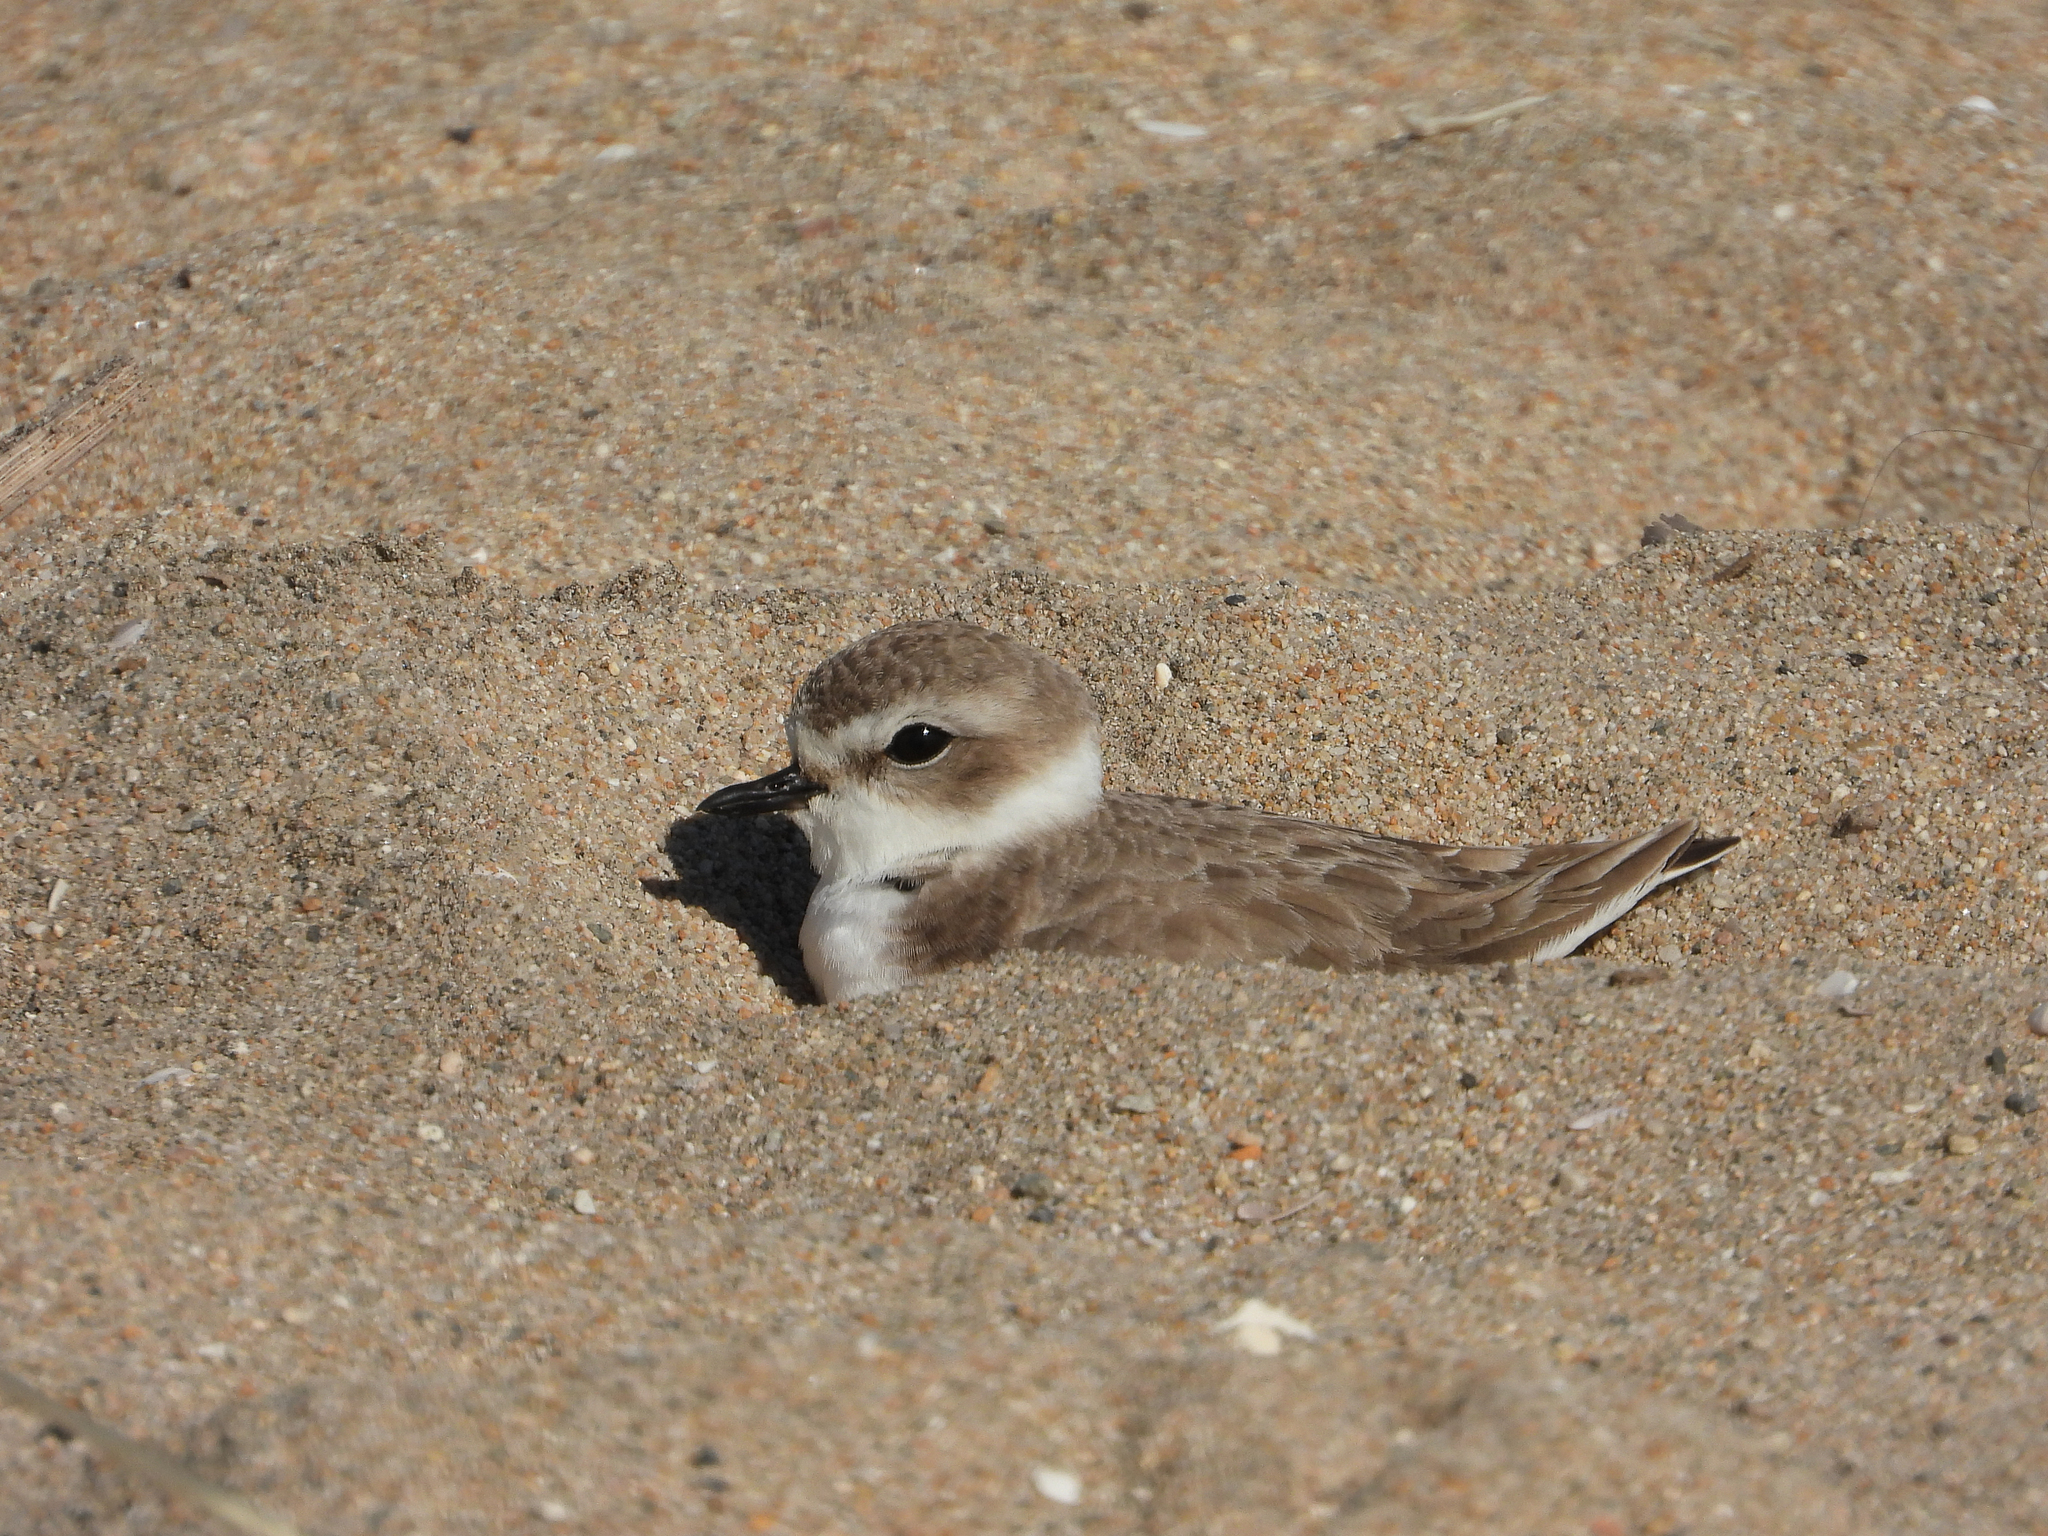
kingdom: Animalia
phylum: Chordata
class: Aves
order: Charadriiformes
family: Charadriidae
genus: Anarhynchus
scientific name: Anarhynchus
